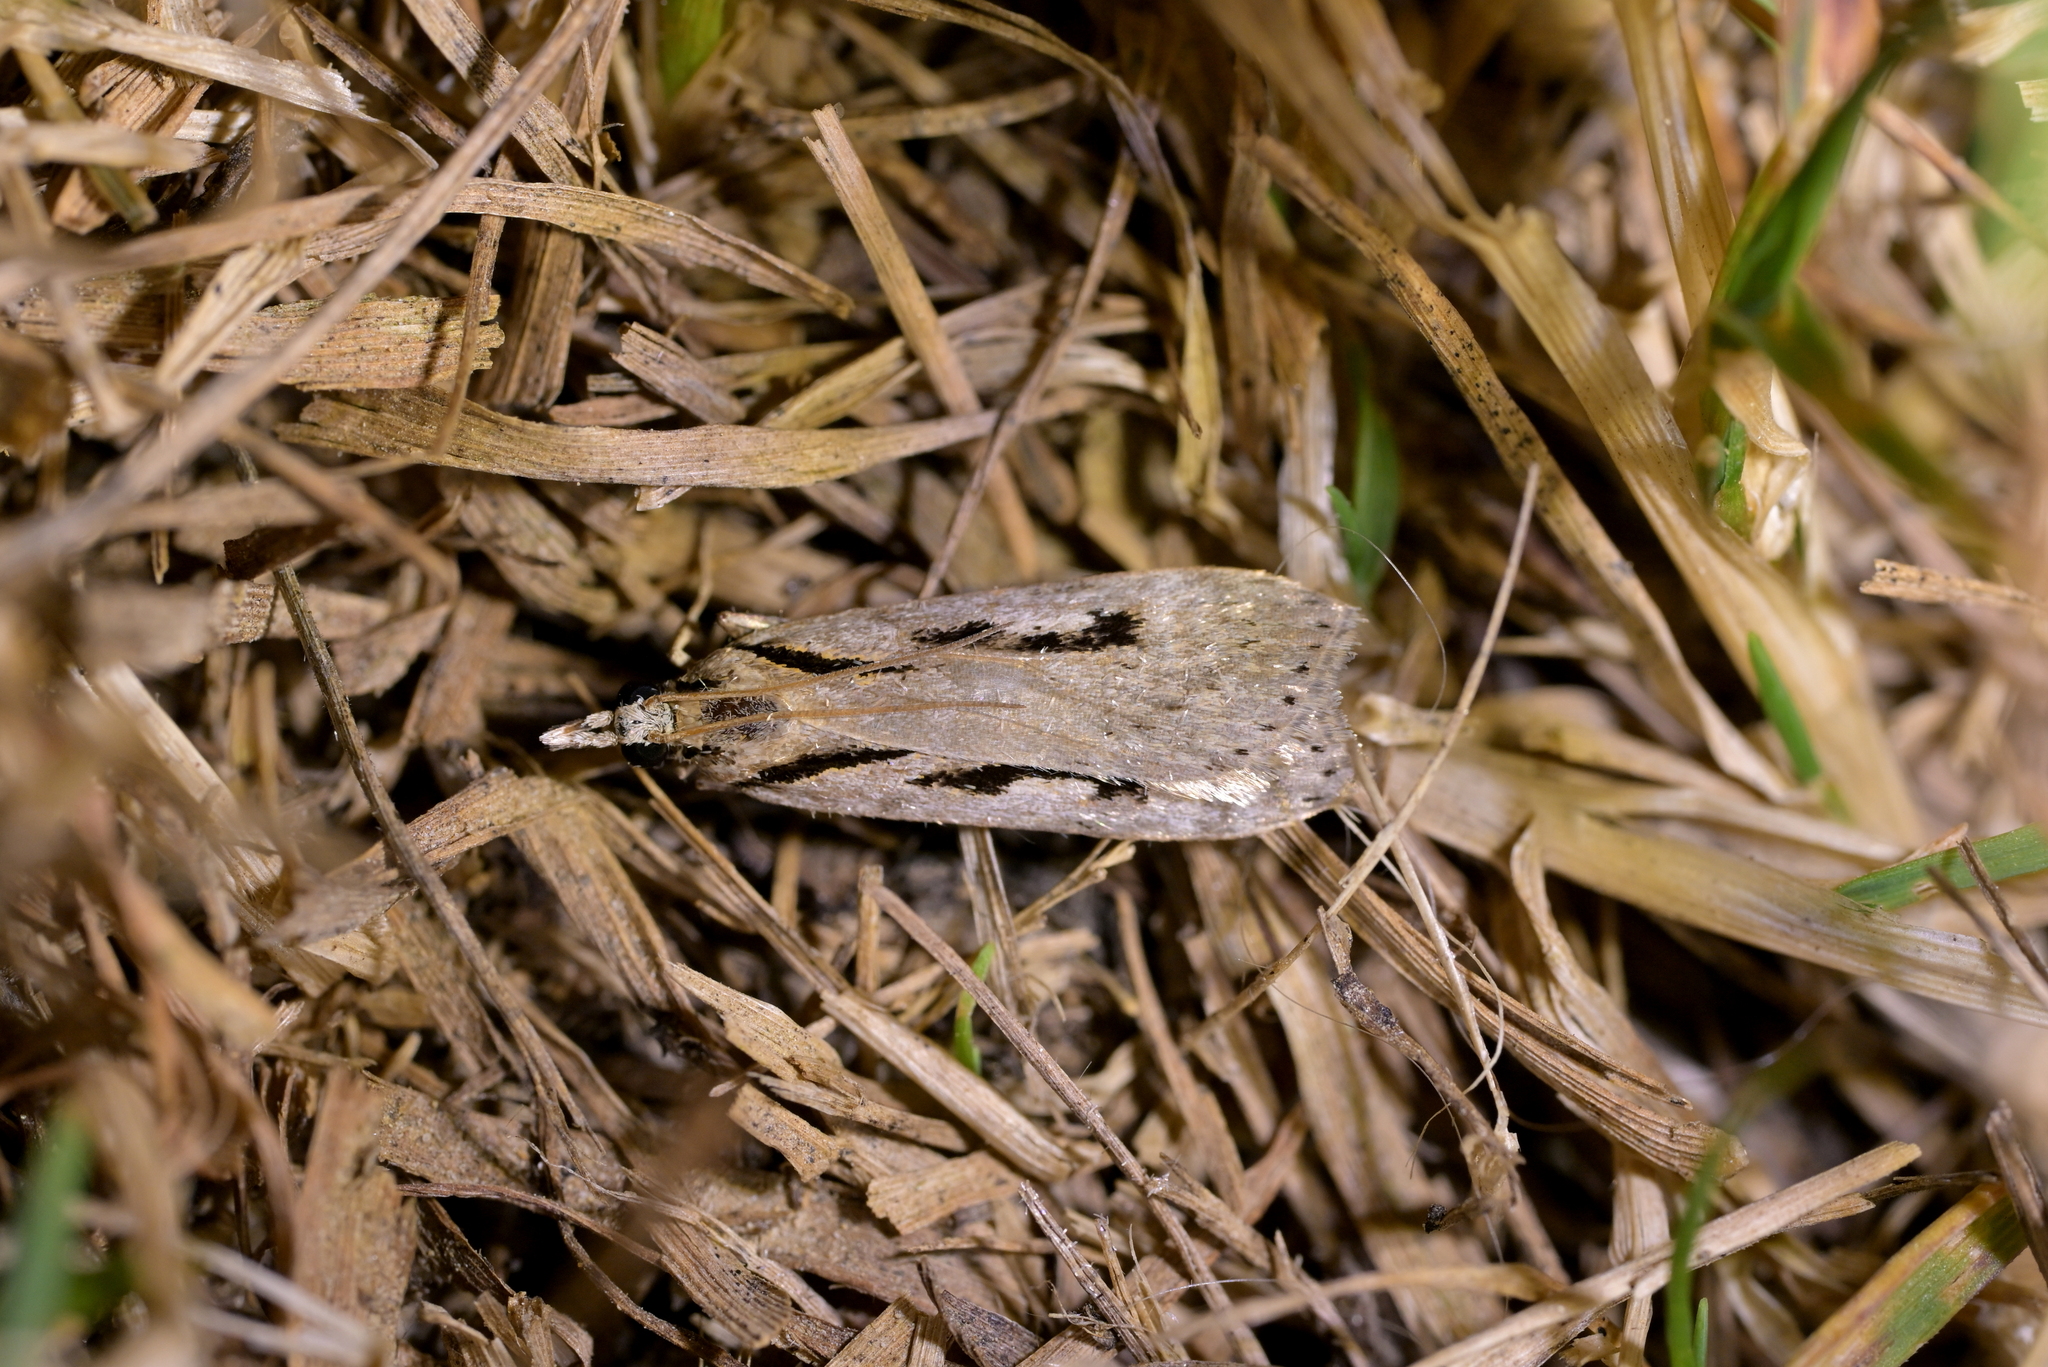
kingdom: Animalia
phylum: Arthropoda
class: Insecta
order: Lepidoptera
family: Crambidae
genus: Scoparia
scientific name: Scoparia rotuellus
